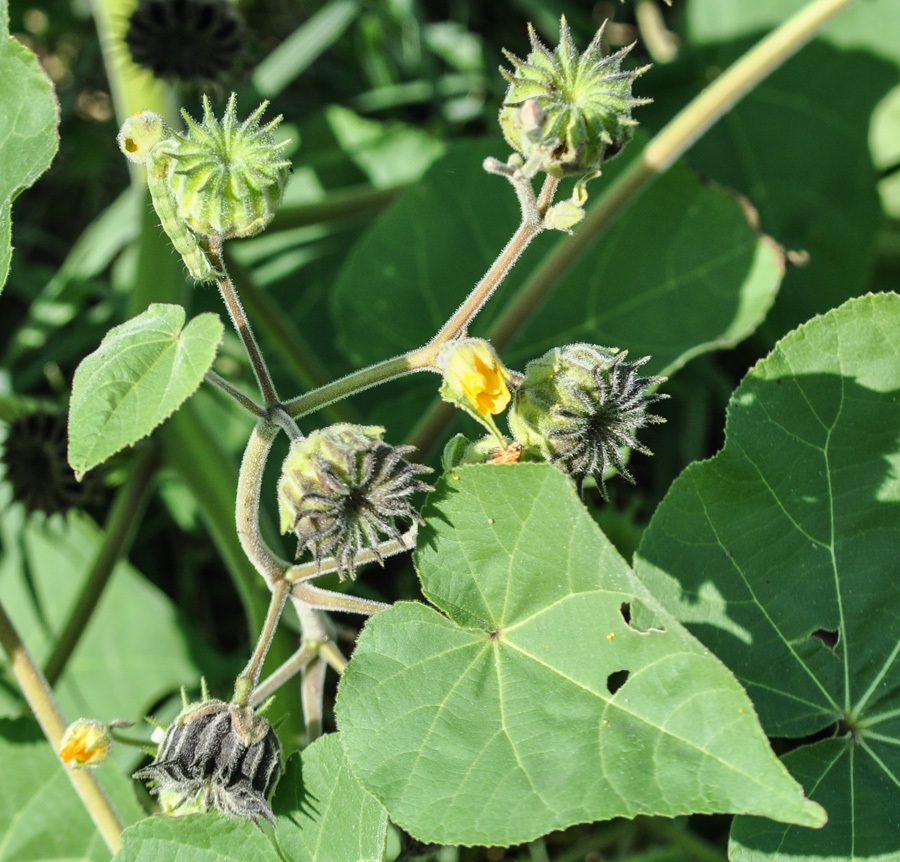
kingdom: Plantae
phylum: Tracheophyta
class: Magnoliopsida
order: Malvales
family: Malvaceae
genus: Abutilon
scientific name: Abutilon theophrasti
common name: Velvetleaf
